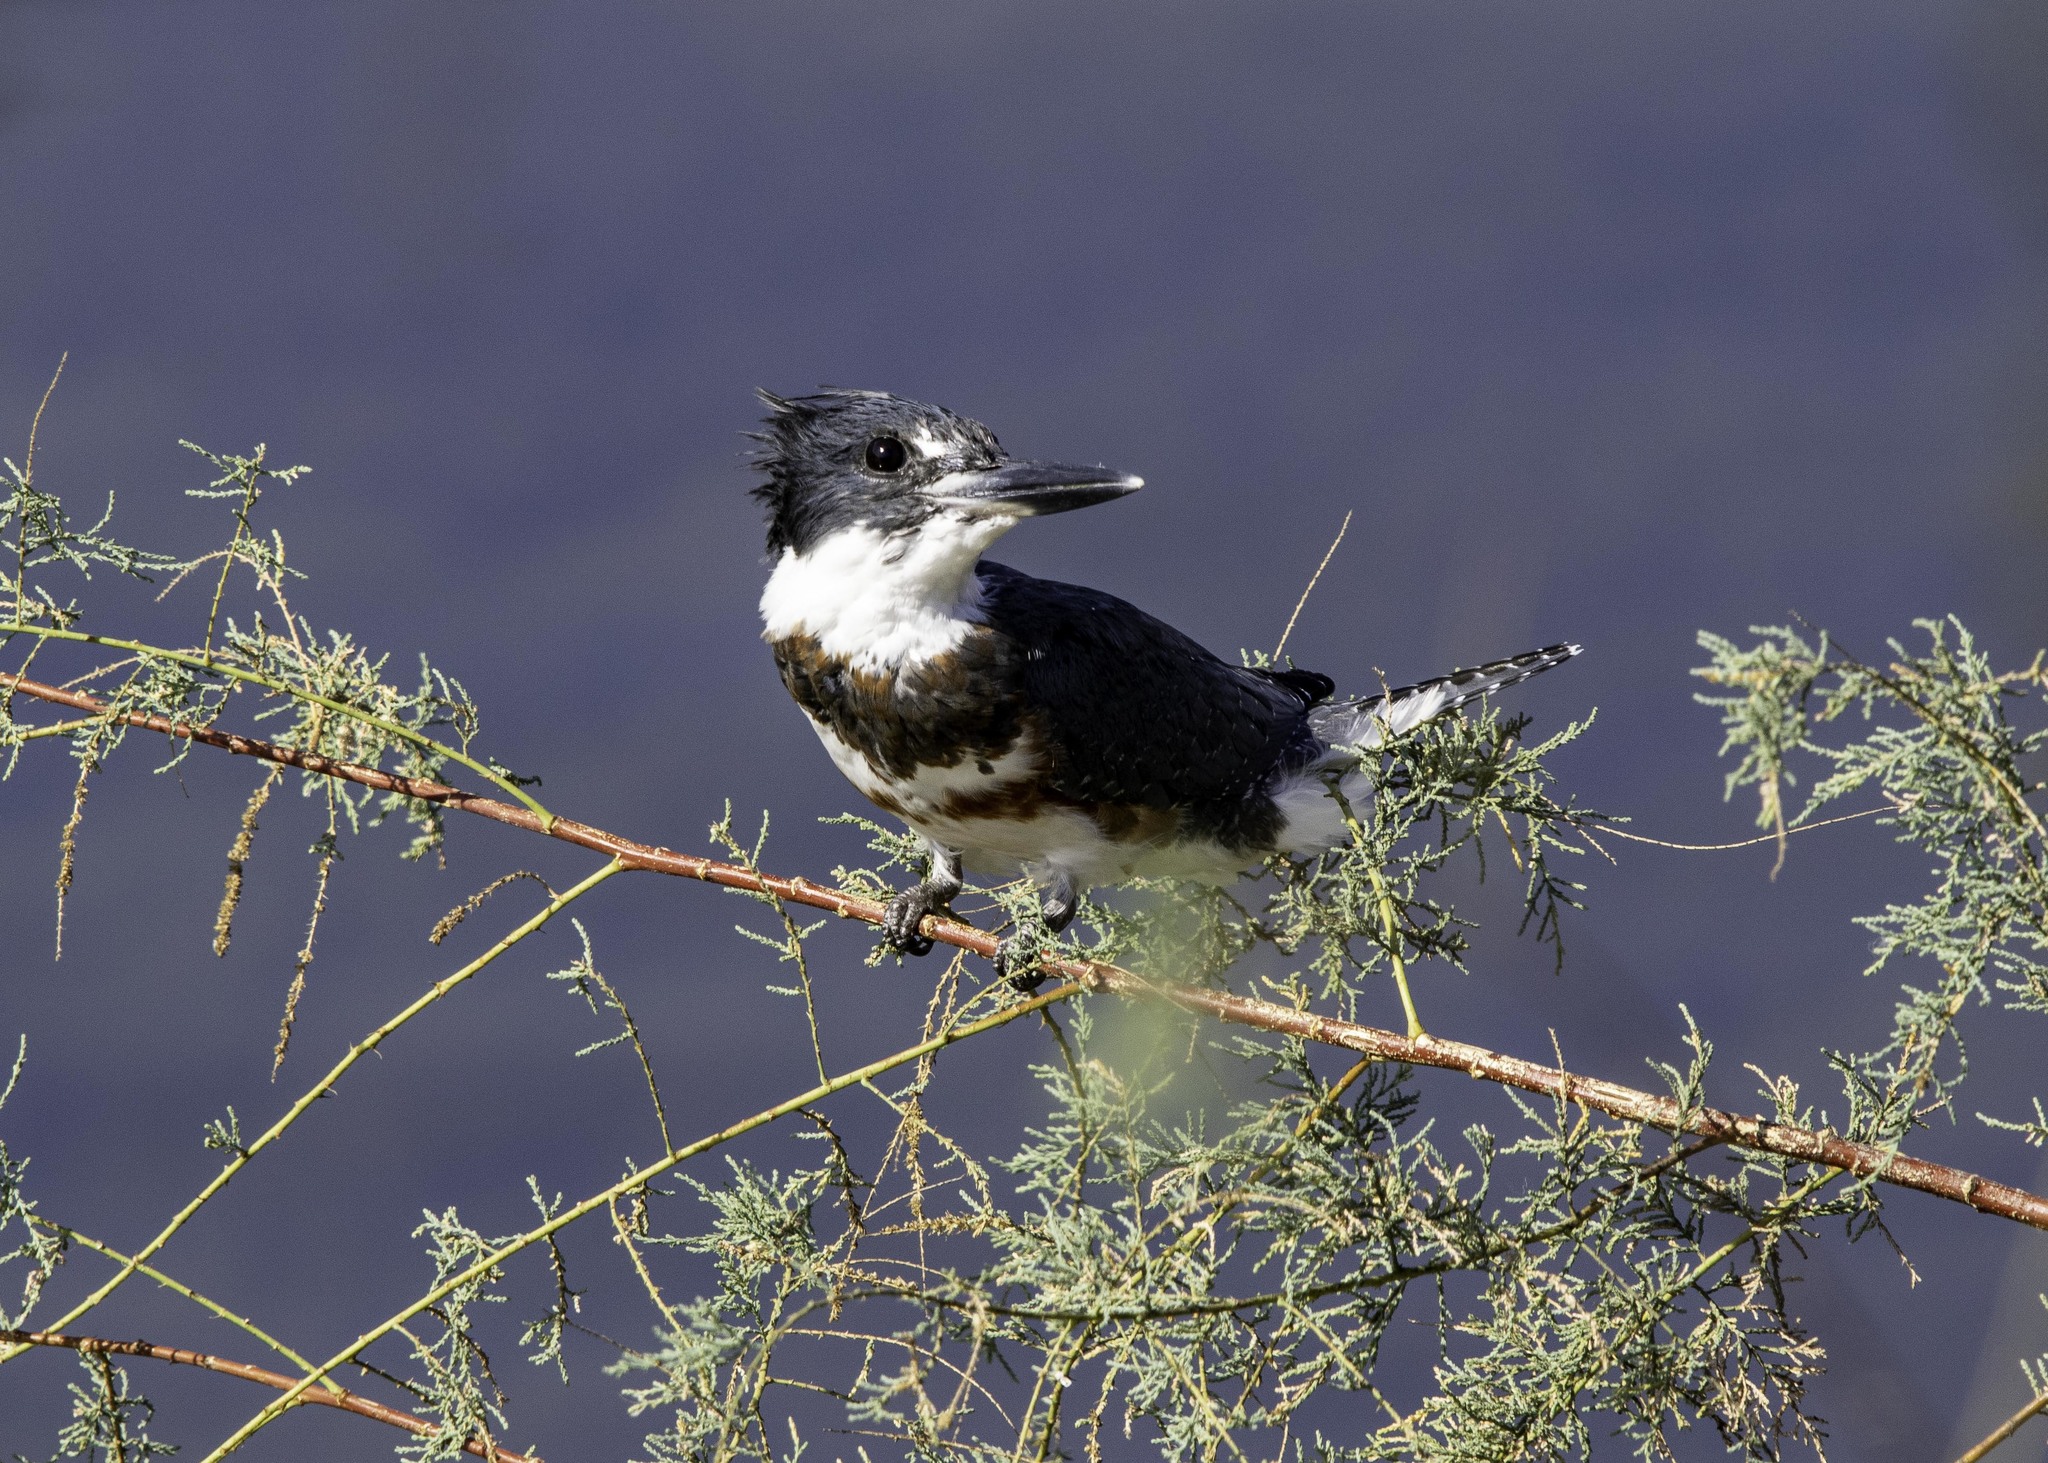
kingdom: Animalia
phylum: Chordata
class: Aves
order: Coraciiformes
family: Alcedinidae
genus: Megaceryle
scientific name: Megaceryle alcyon
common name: Belted kingfisher
